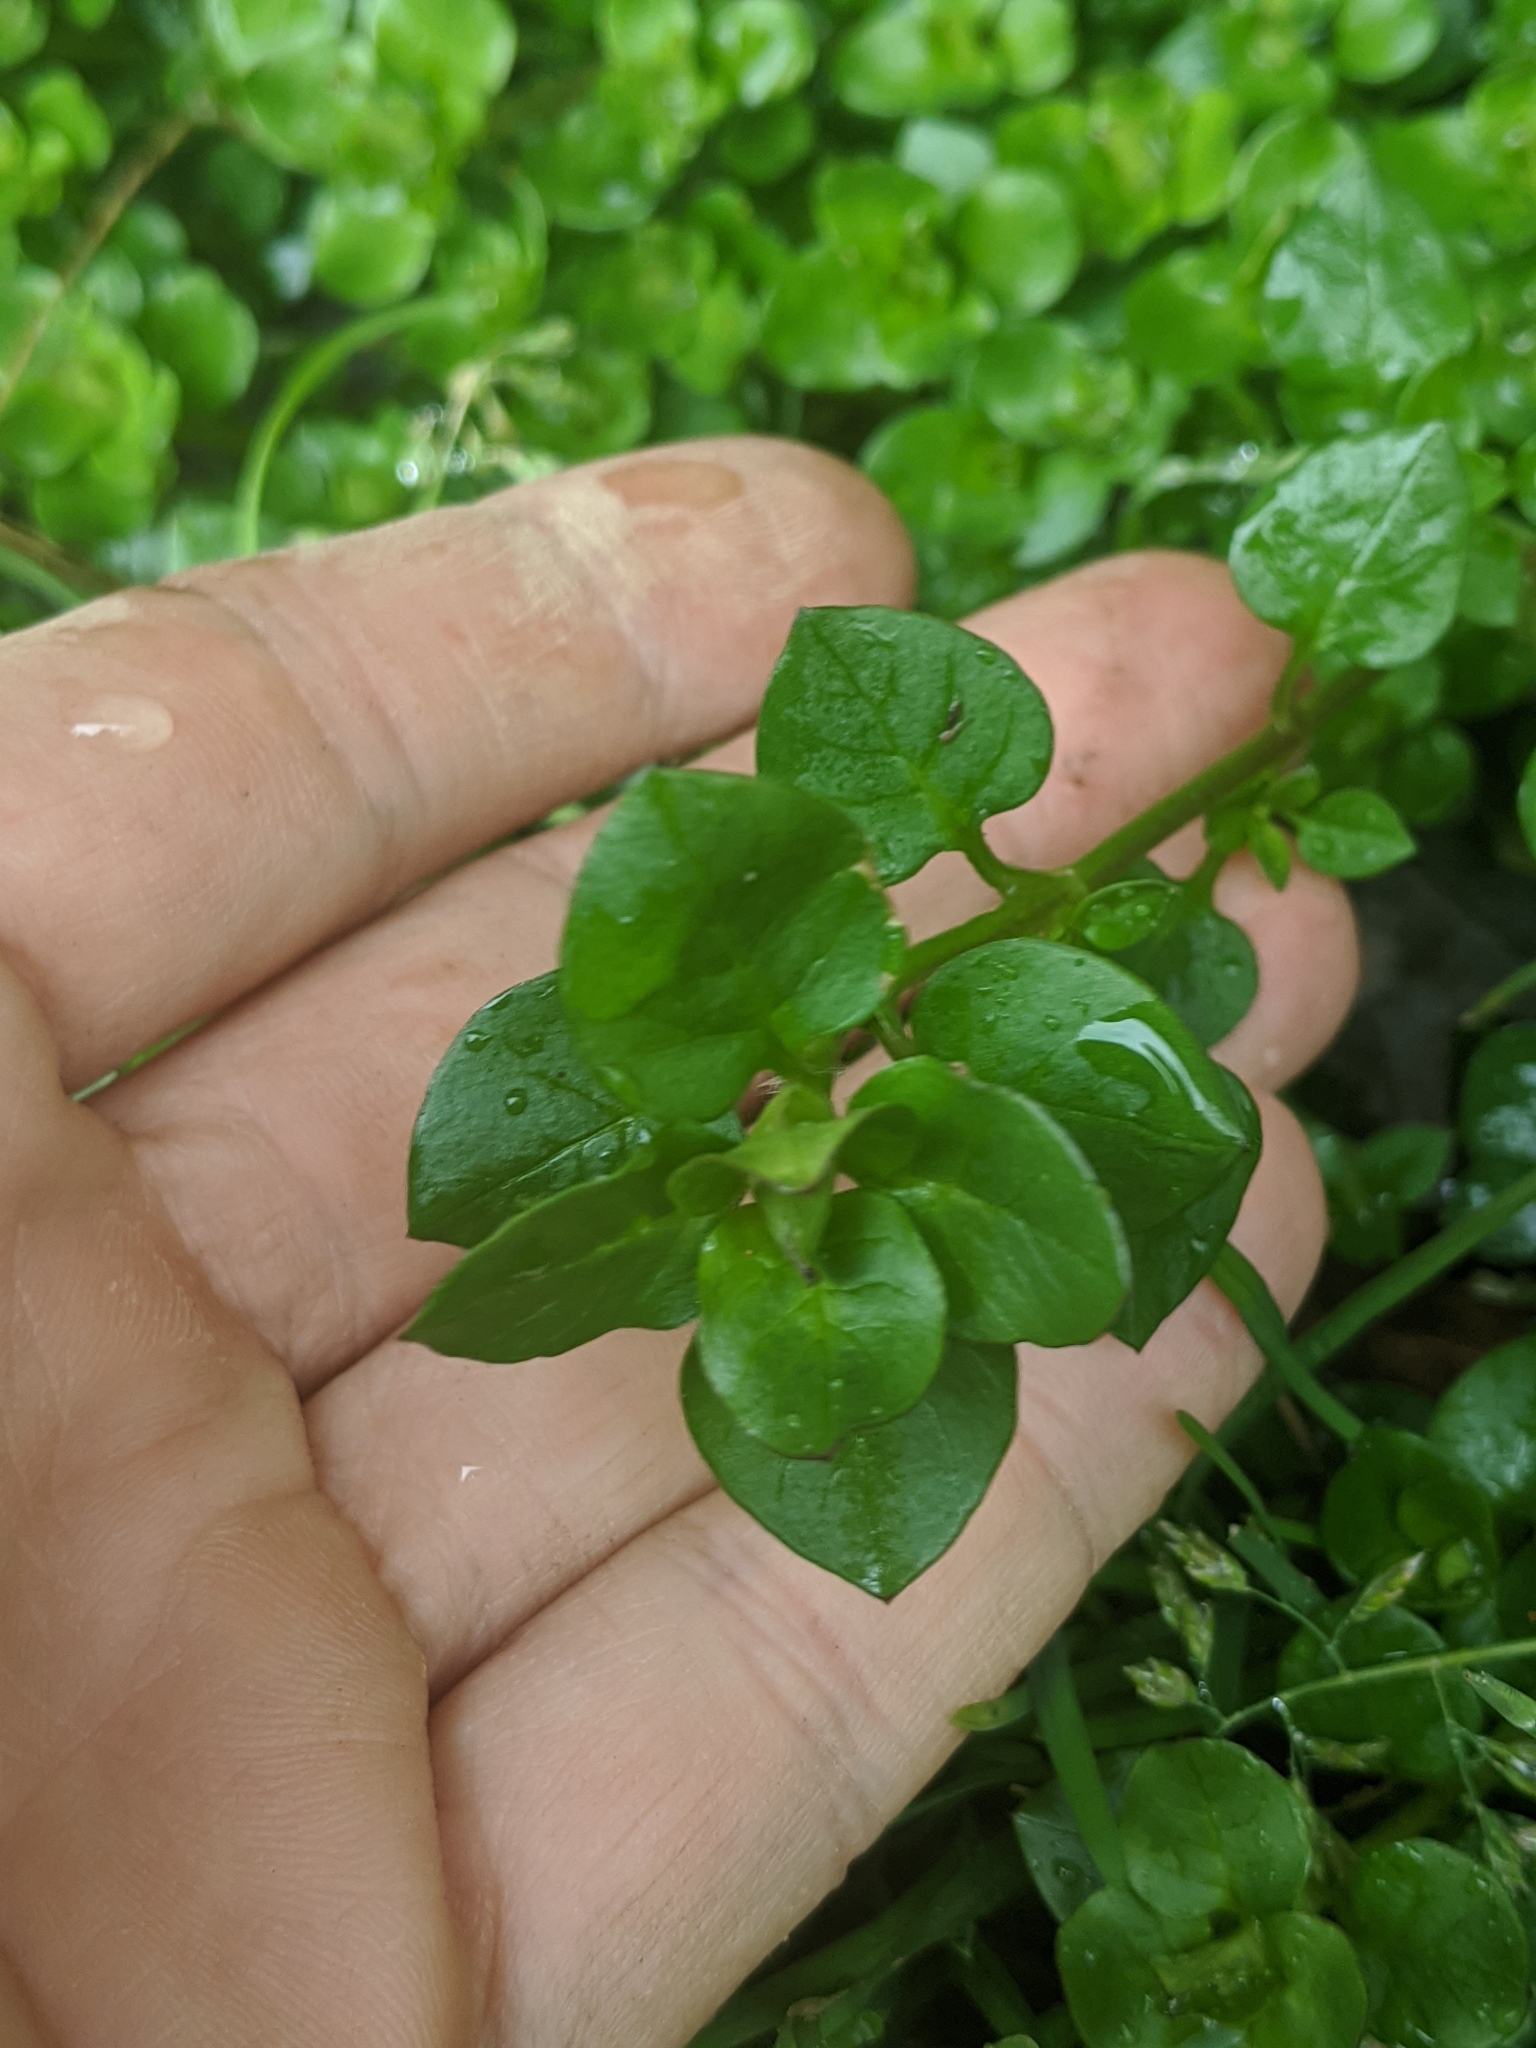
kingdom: Plantae
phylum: Tracheophyta
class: Magnoliopsida
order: Caryophyllales
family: Caryophyllaceae
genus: Stellaria
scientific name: Stellaria media
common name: Common chickweed
